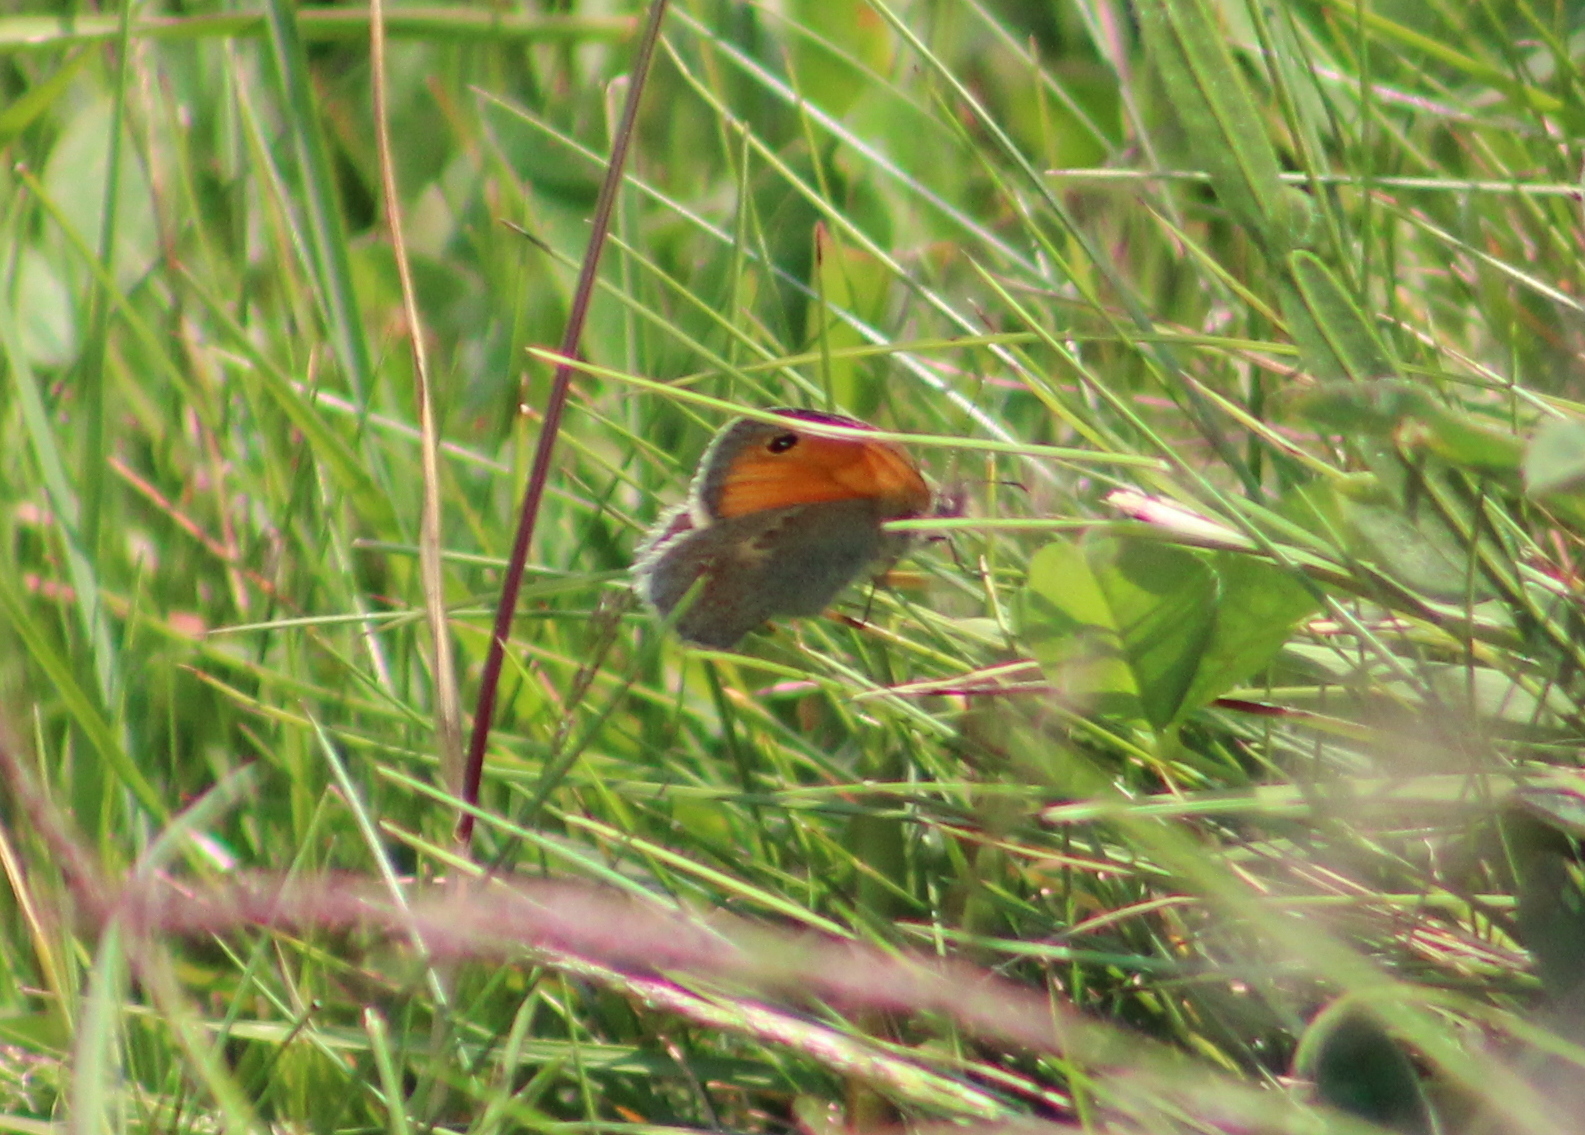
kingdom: Animalia
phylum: Arthropoda
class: Insecta
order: Lepidoptera
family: Nymphalidae
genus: Coenonympha
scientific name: Coenonympha pamphilus
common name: Small heath
